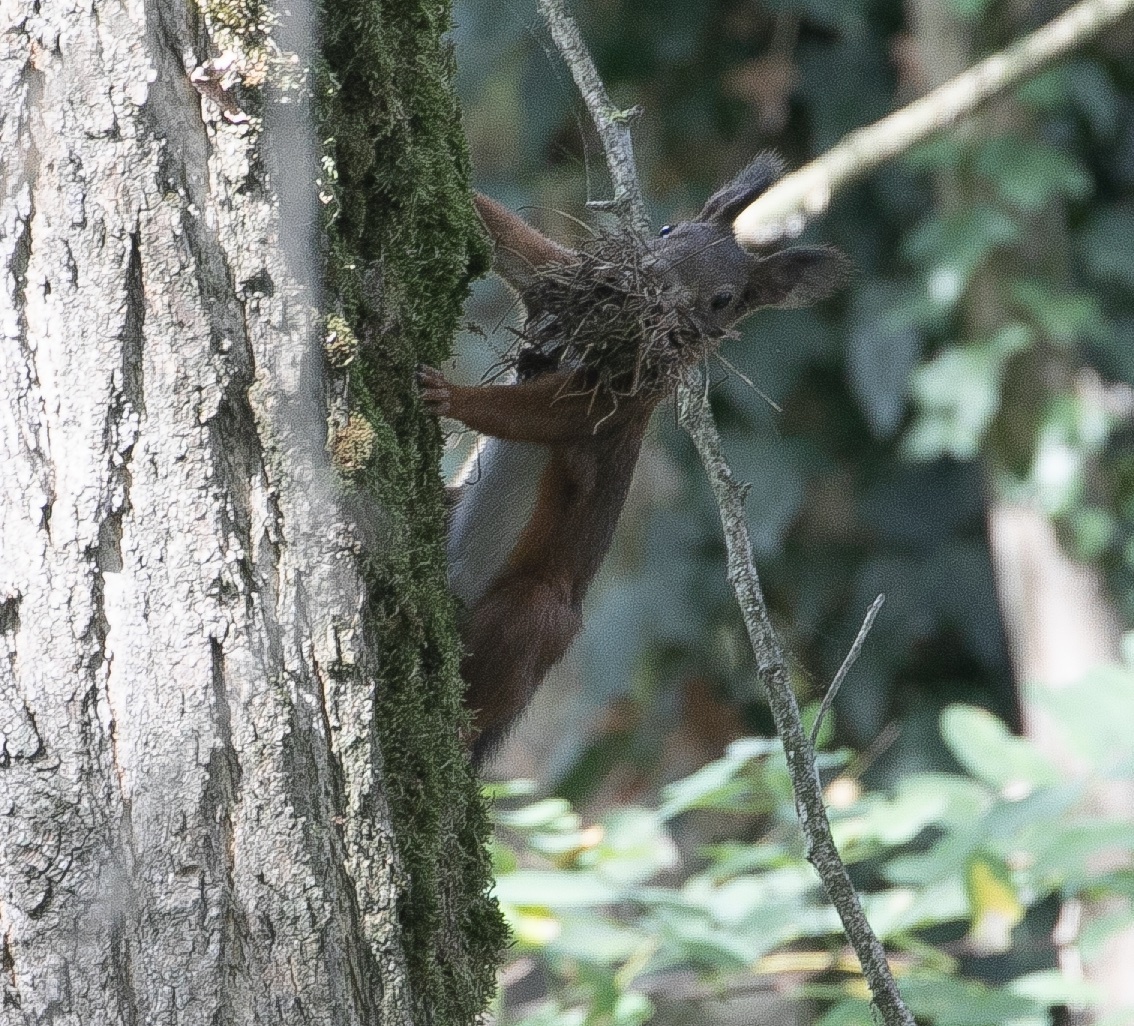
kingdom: Animalia
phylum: Chordata
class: Mammalia
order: Rodentia
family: Sciuridae
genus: Sciurus
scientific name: Sciurus vulgaris
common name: Eurasian red squirrel
